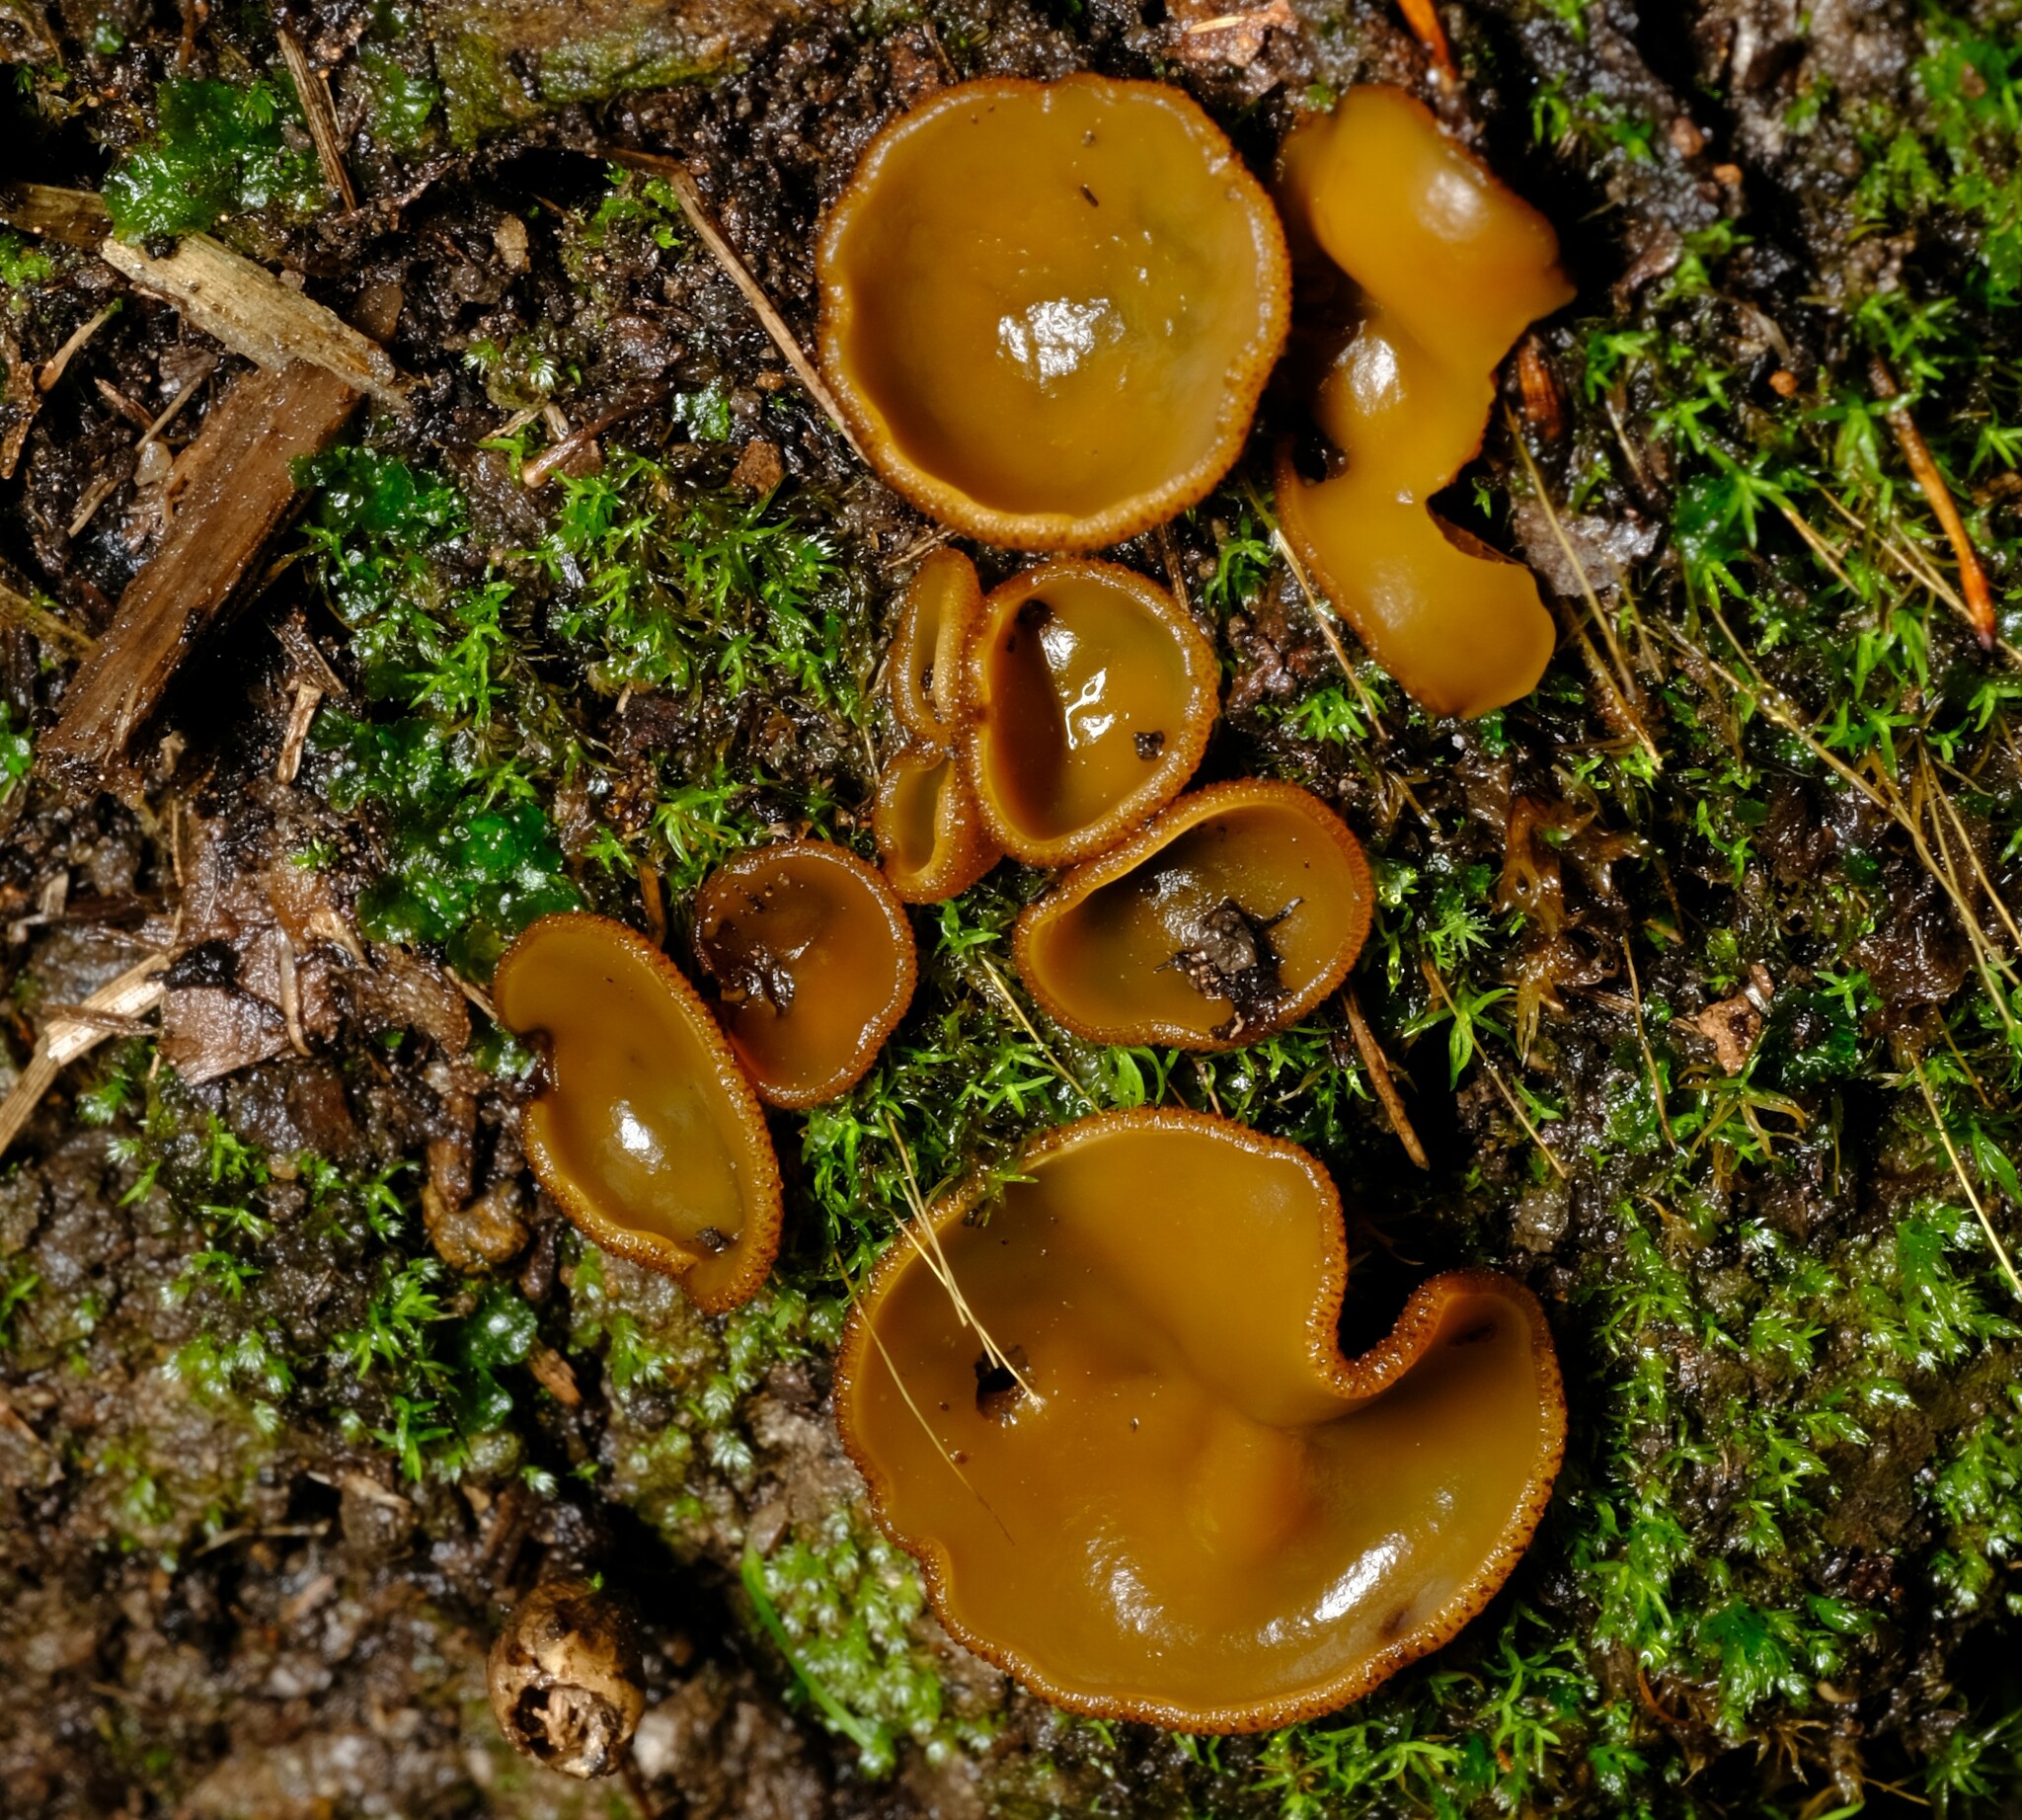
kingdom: Fungi
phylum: Ascomycota
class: Pezizomycetes
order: Pezizales
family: Pyronemataceae
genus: Aleurina
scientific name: Aleurina ferruginea
